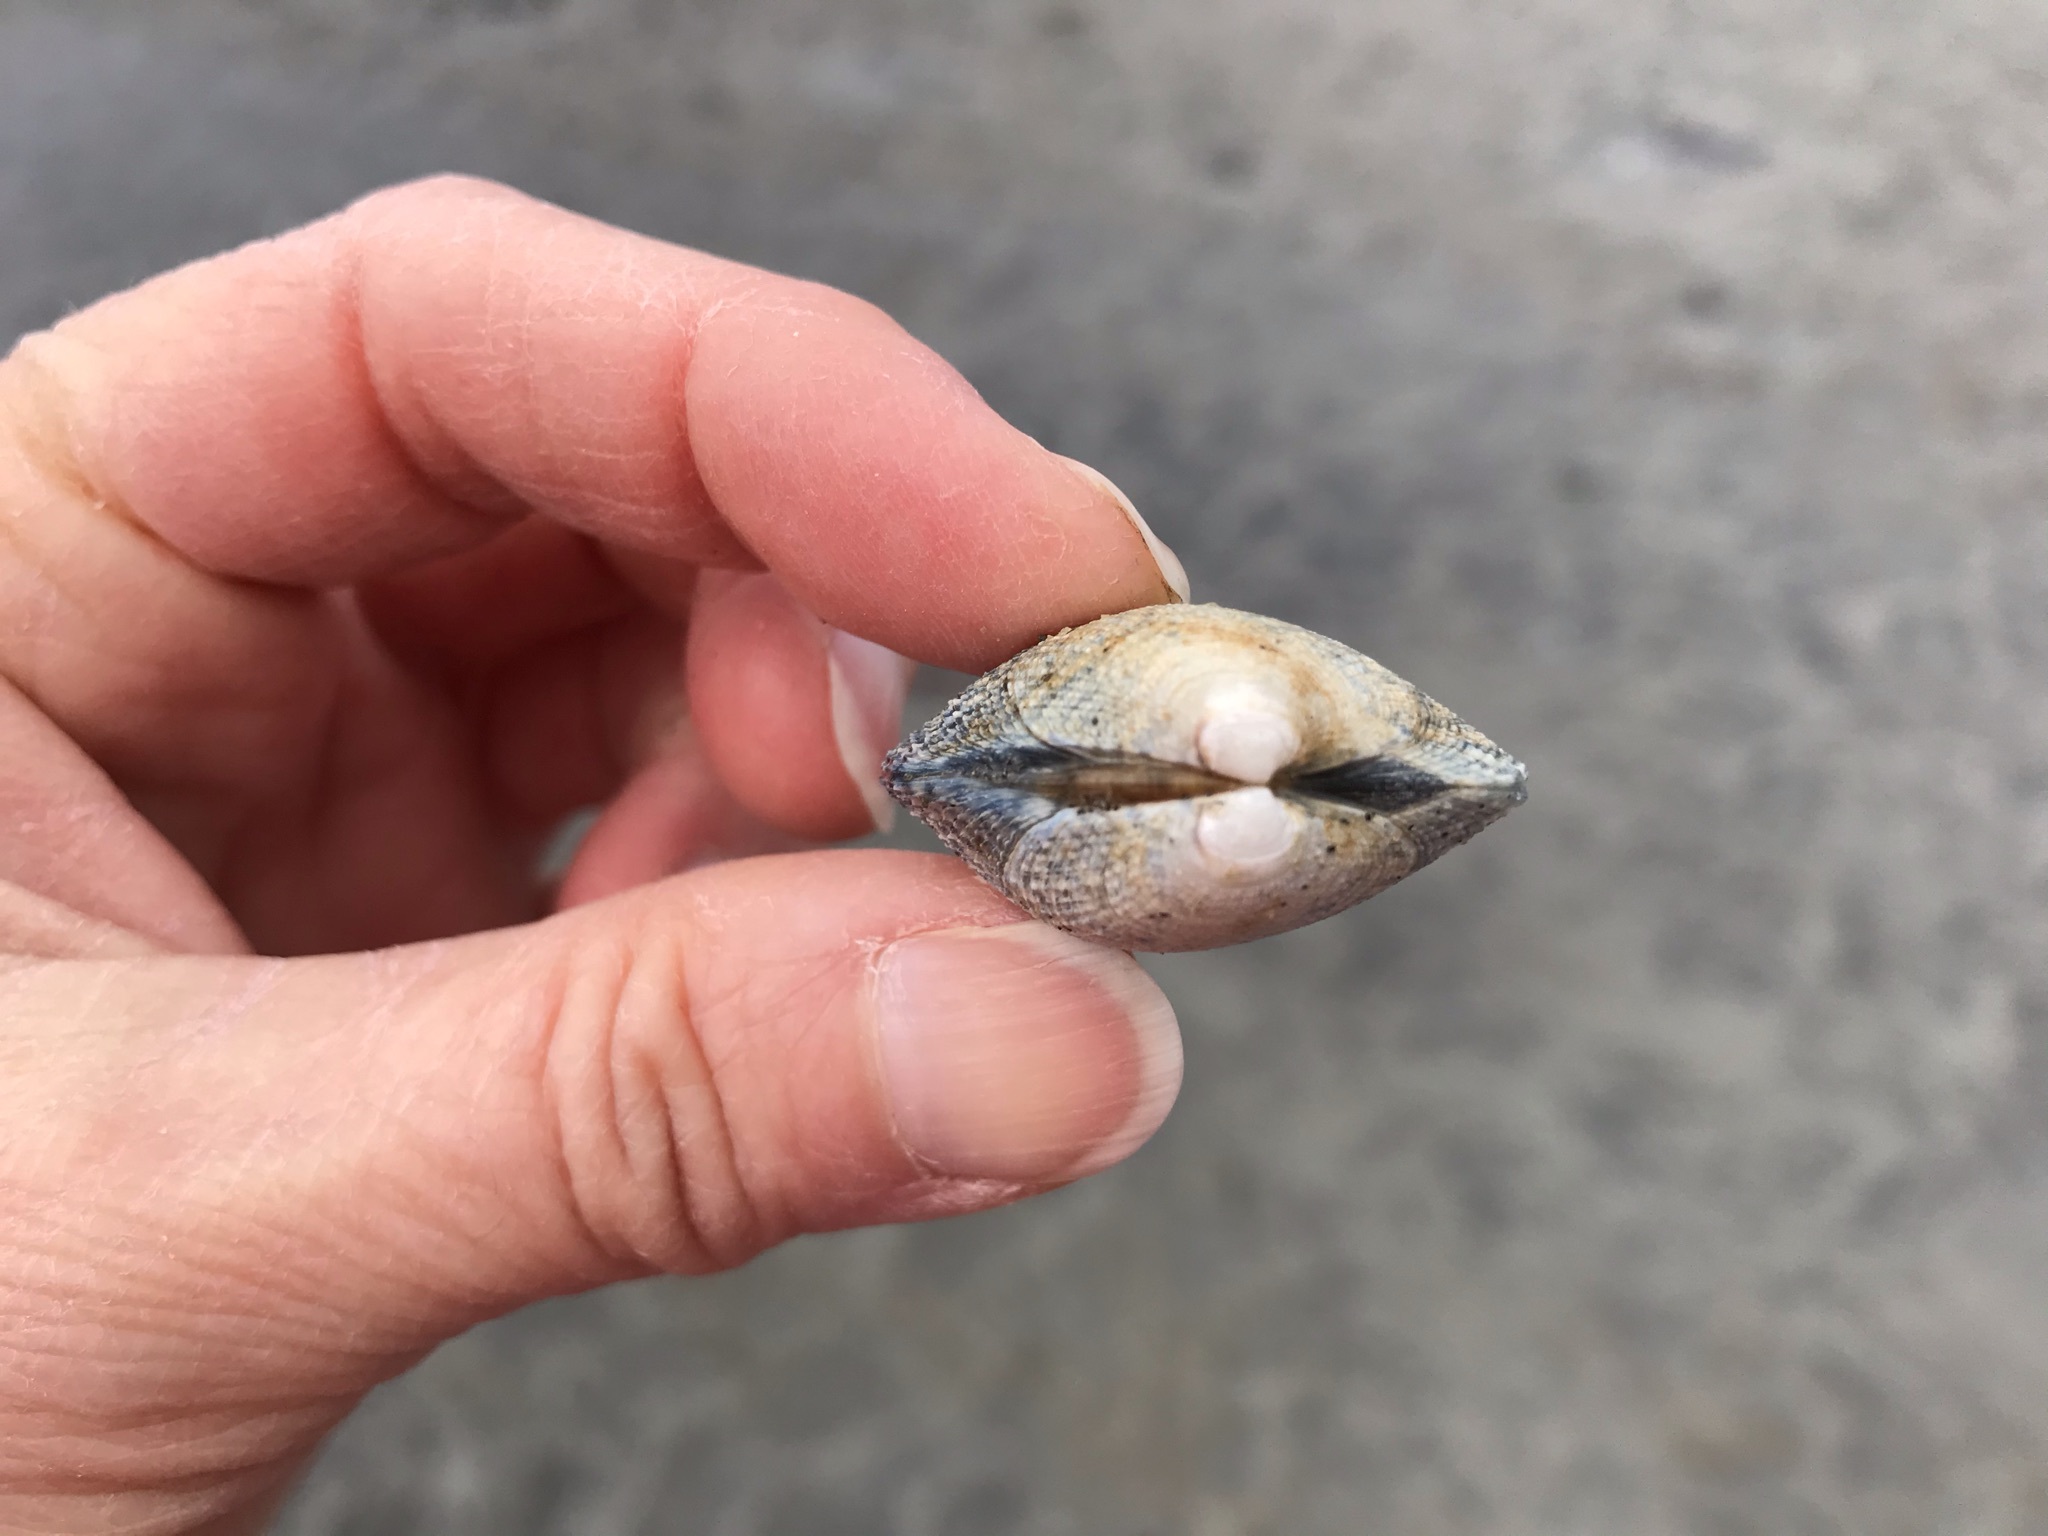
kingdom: Animalia
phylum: Mollusca
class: Bivalvia
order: Venerida
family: Veneridae
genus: Ruditapes
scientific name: Ruditapes philippinarum
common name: Manila clam
